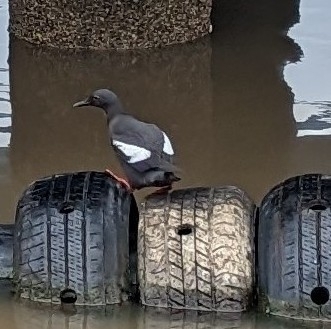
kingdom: Animalia
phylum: Chordata
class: Aves
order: Charadriiformes
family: Alcidae
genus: Cepphus
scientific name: Cepphus columba
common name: Pigeon guillemot
